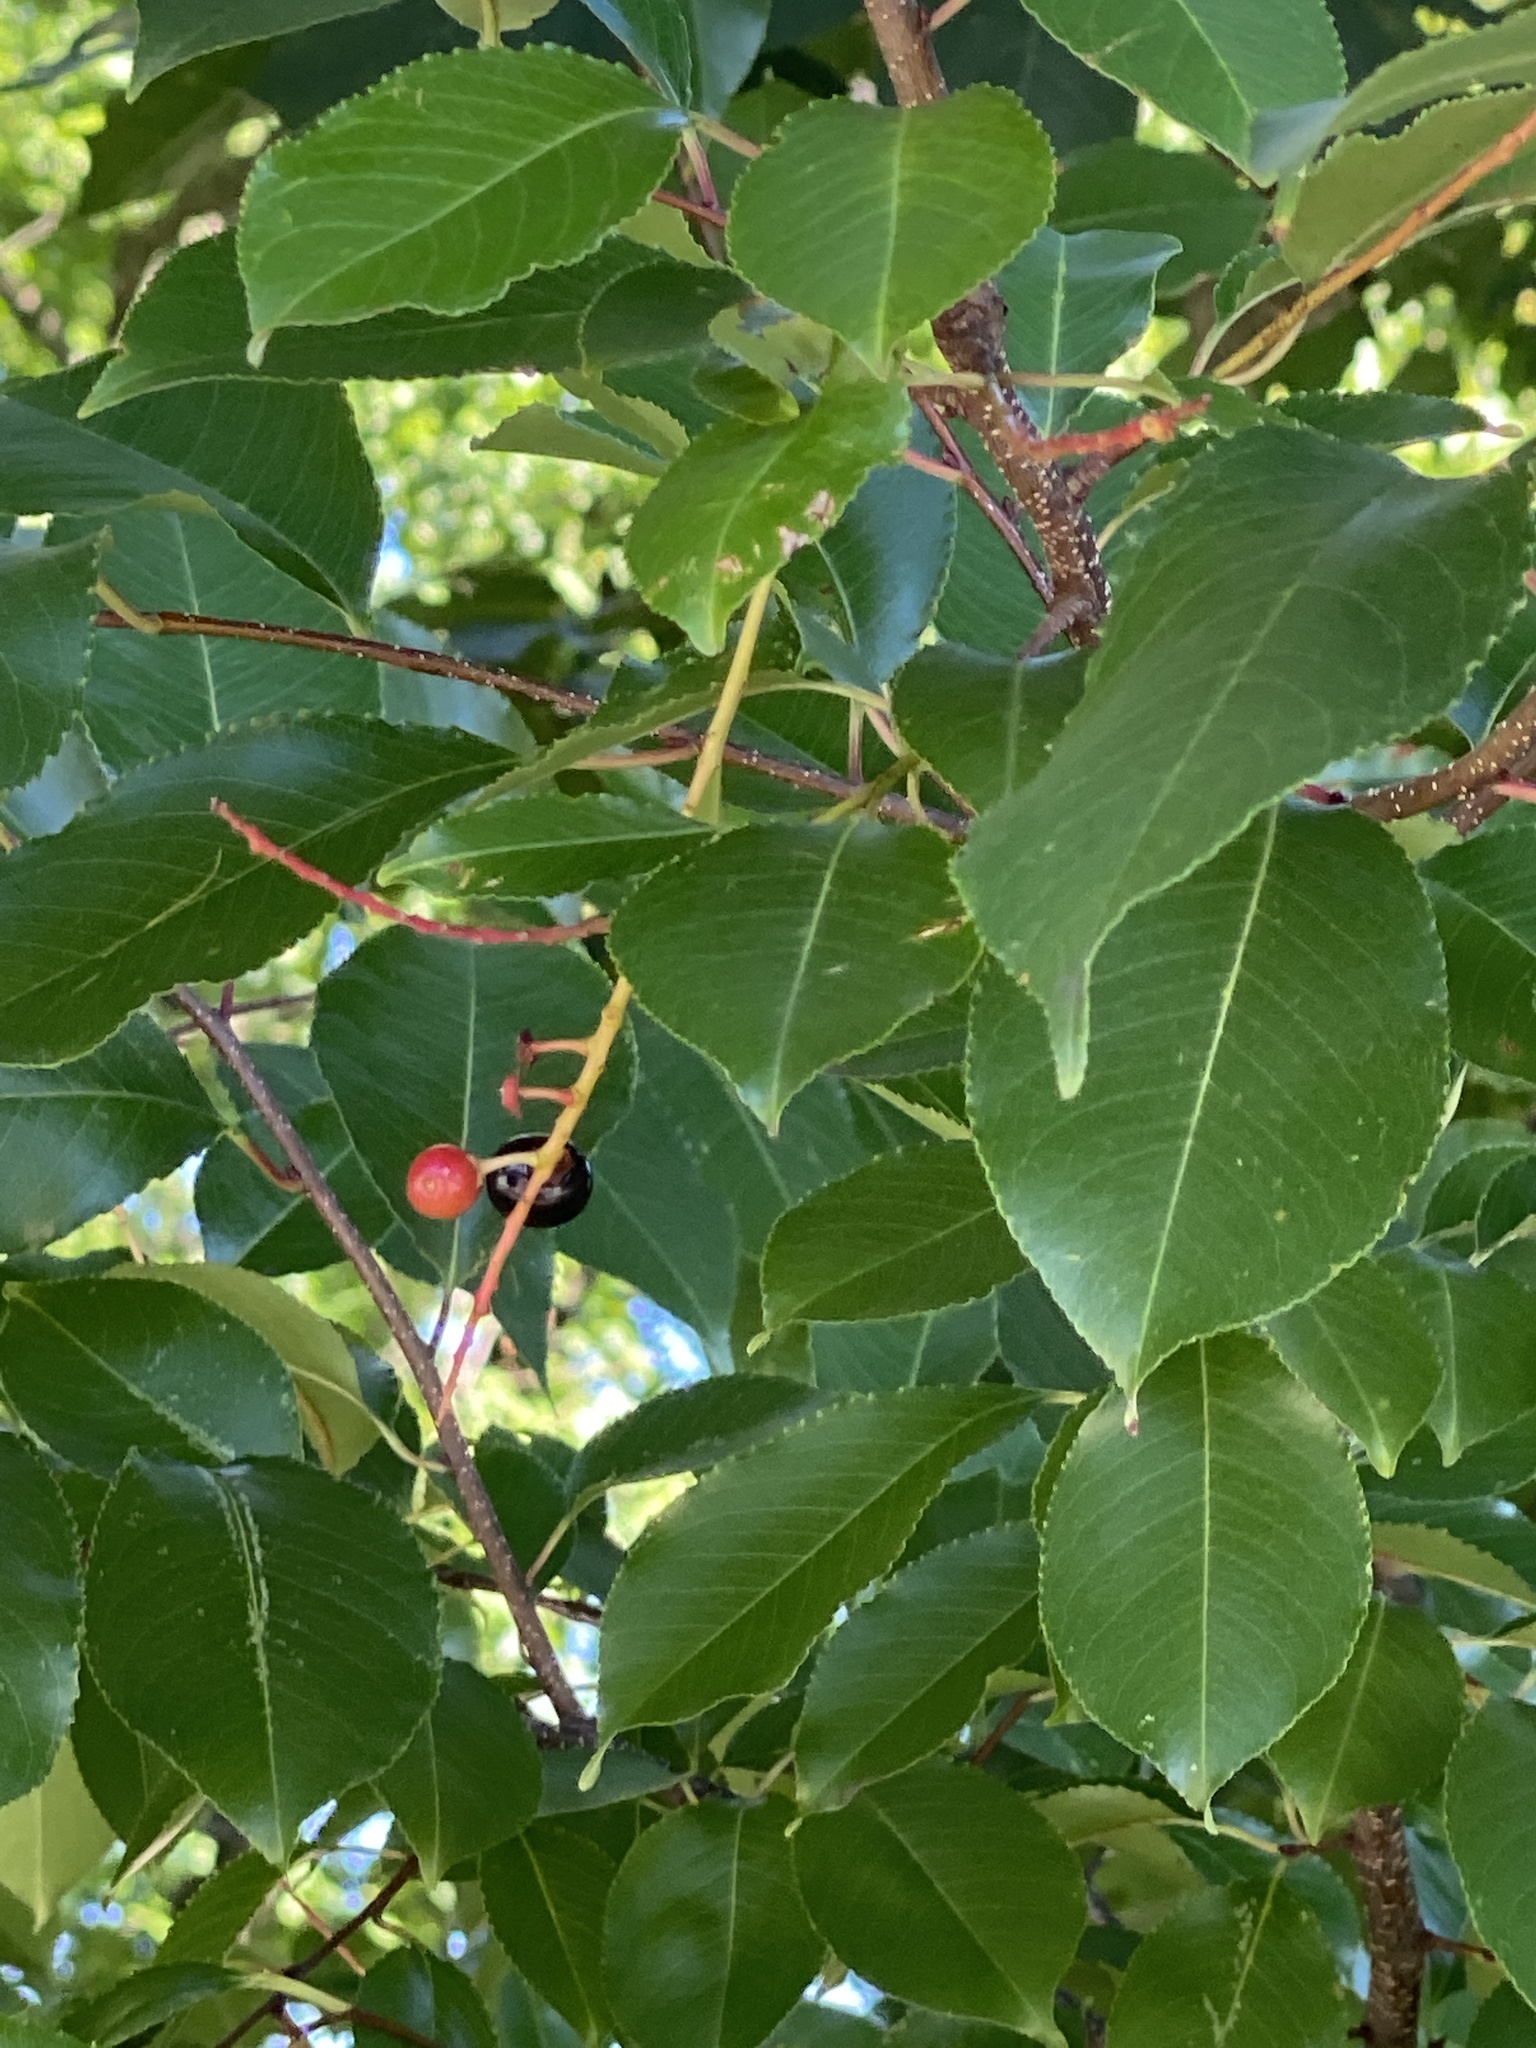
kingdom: Plantae
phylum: Tracheophyta
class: Magnoliopsida
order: Rosales
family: Rosaceae
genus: Prunus
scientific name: Prunus serotina
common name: Black cherry
